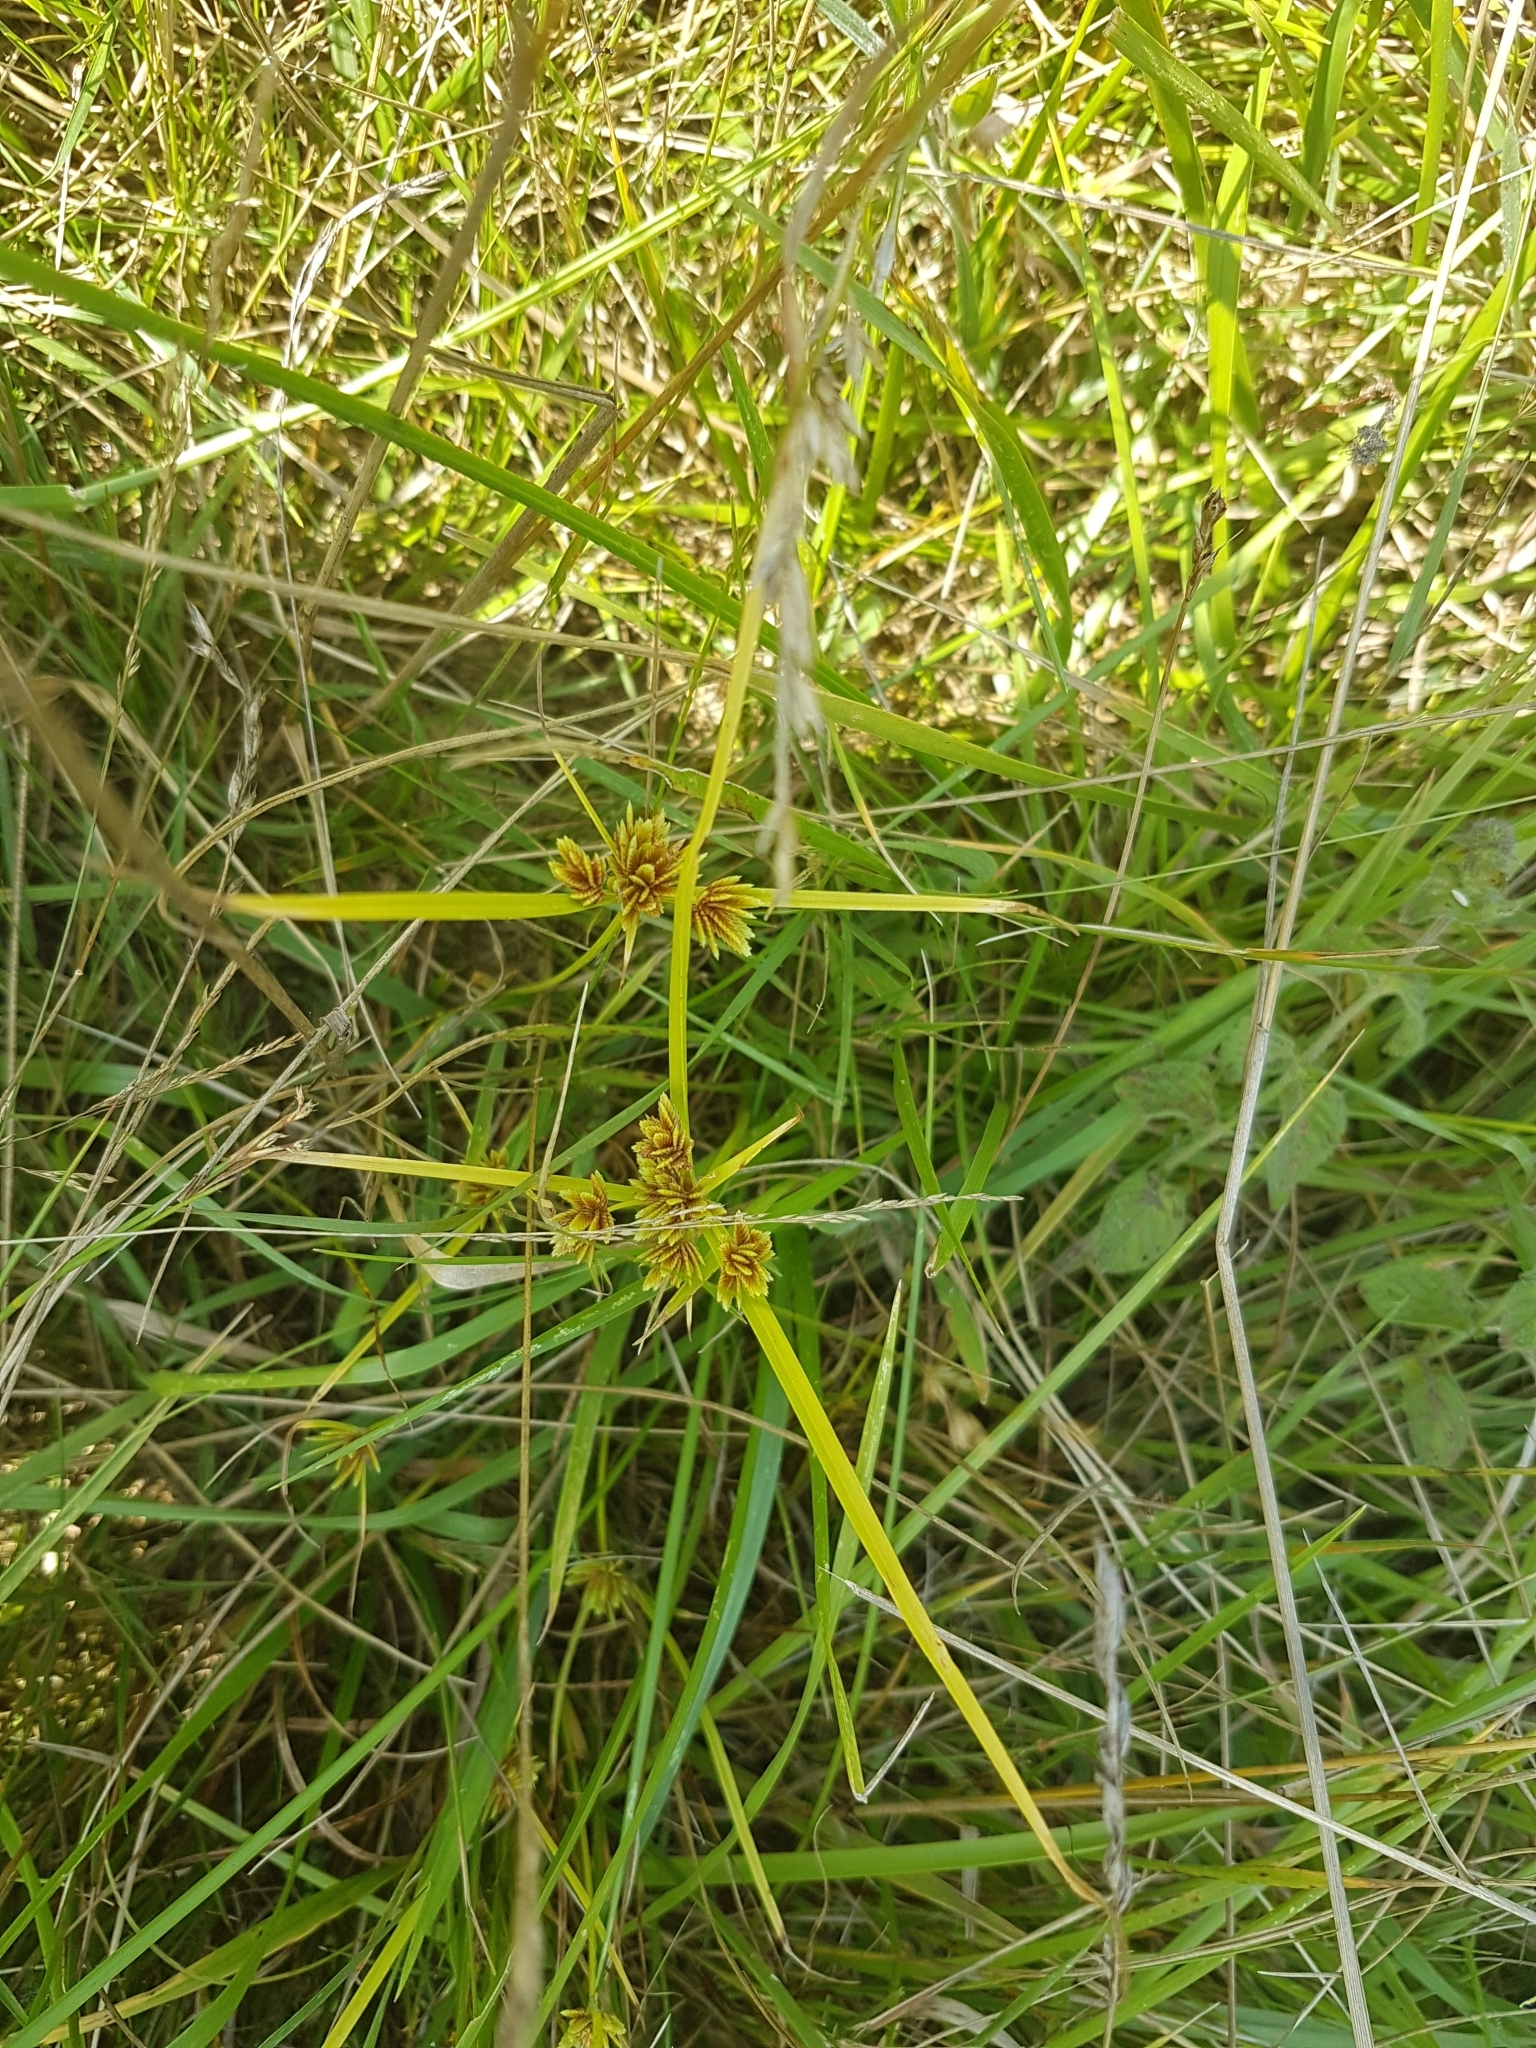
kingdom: Plantae
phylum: Tracheophyta
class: Liliopsida
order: Poales
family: Cyperaceae
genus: Cyperus
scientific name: Cyperus eragrostis
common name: Tall flatsedge
